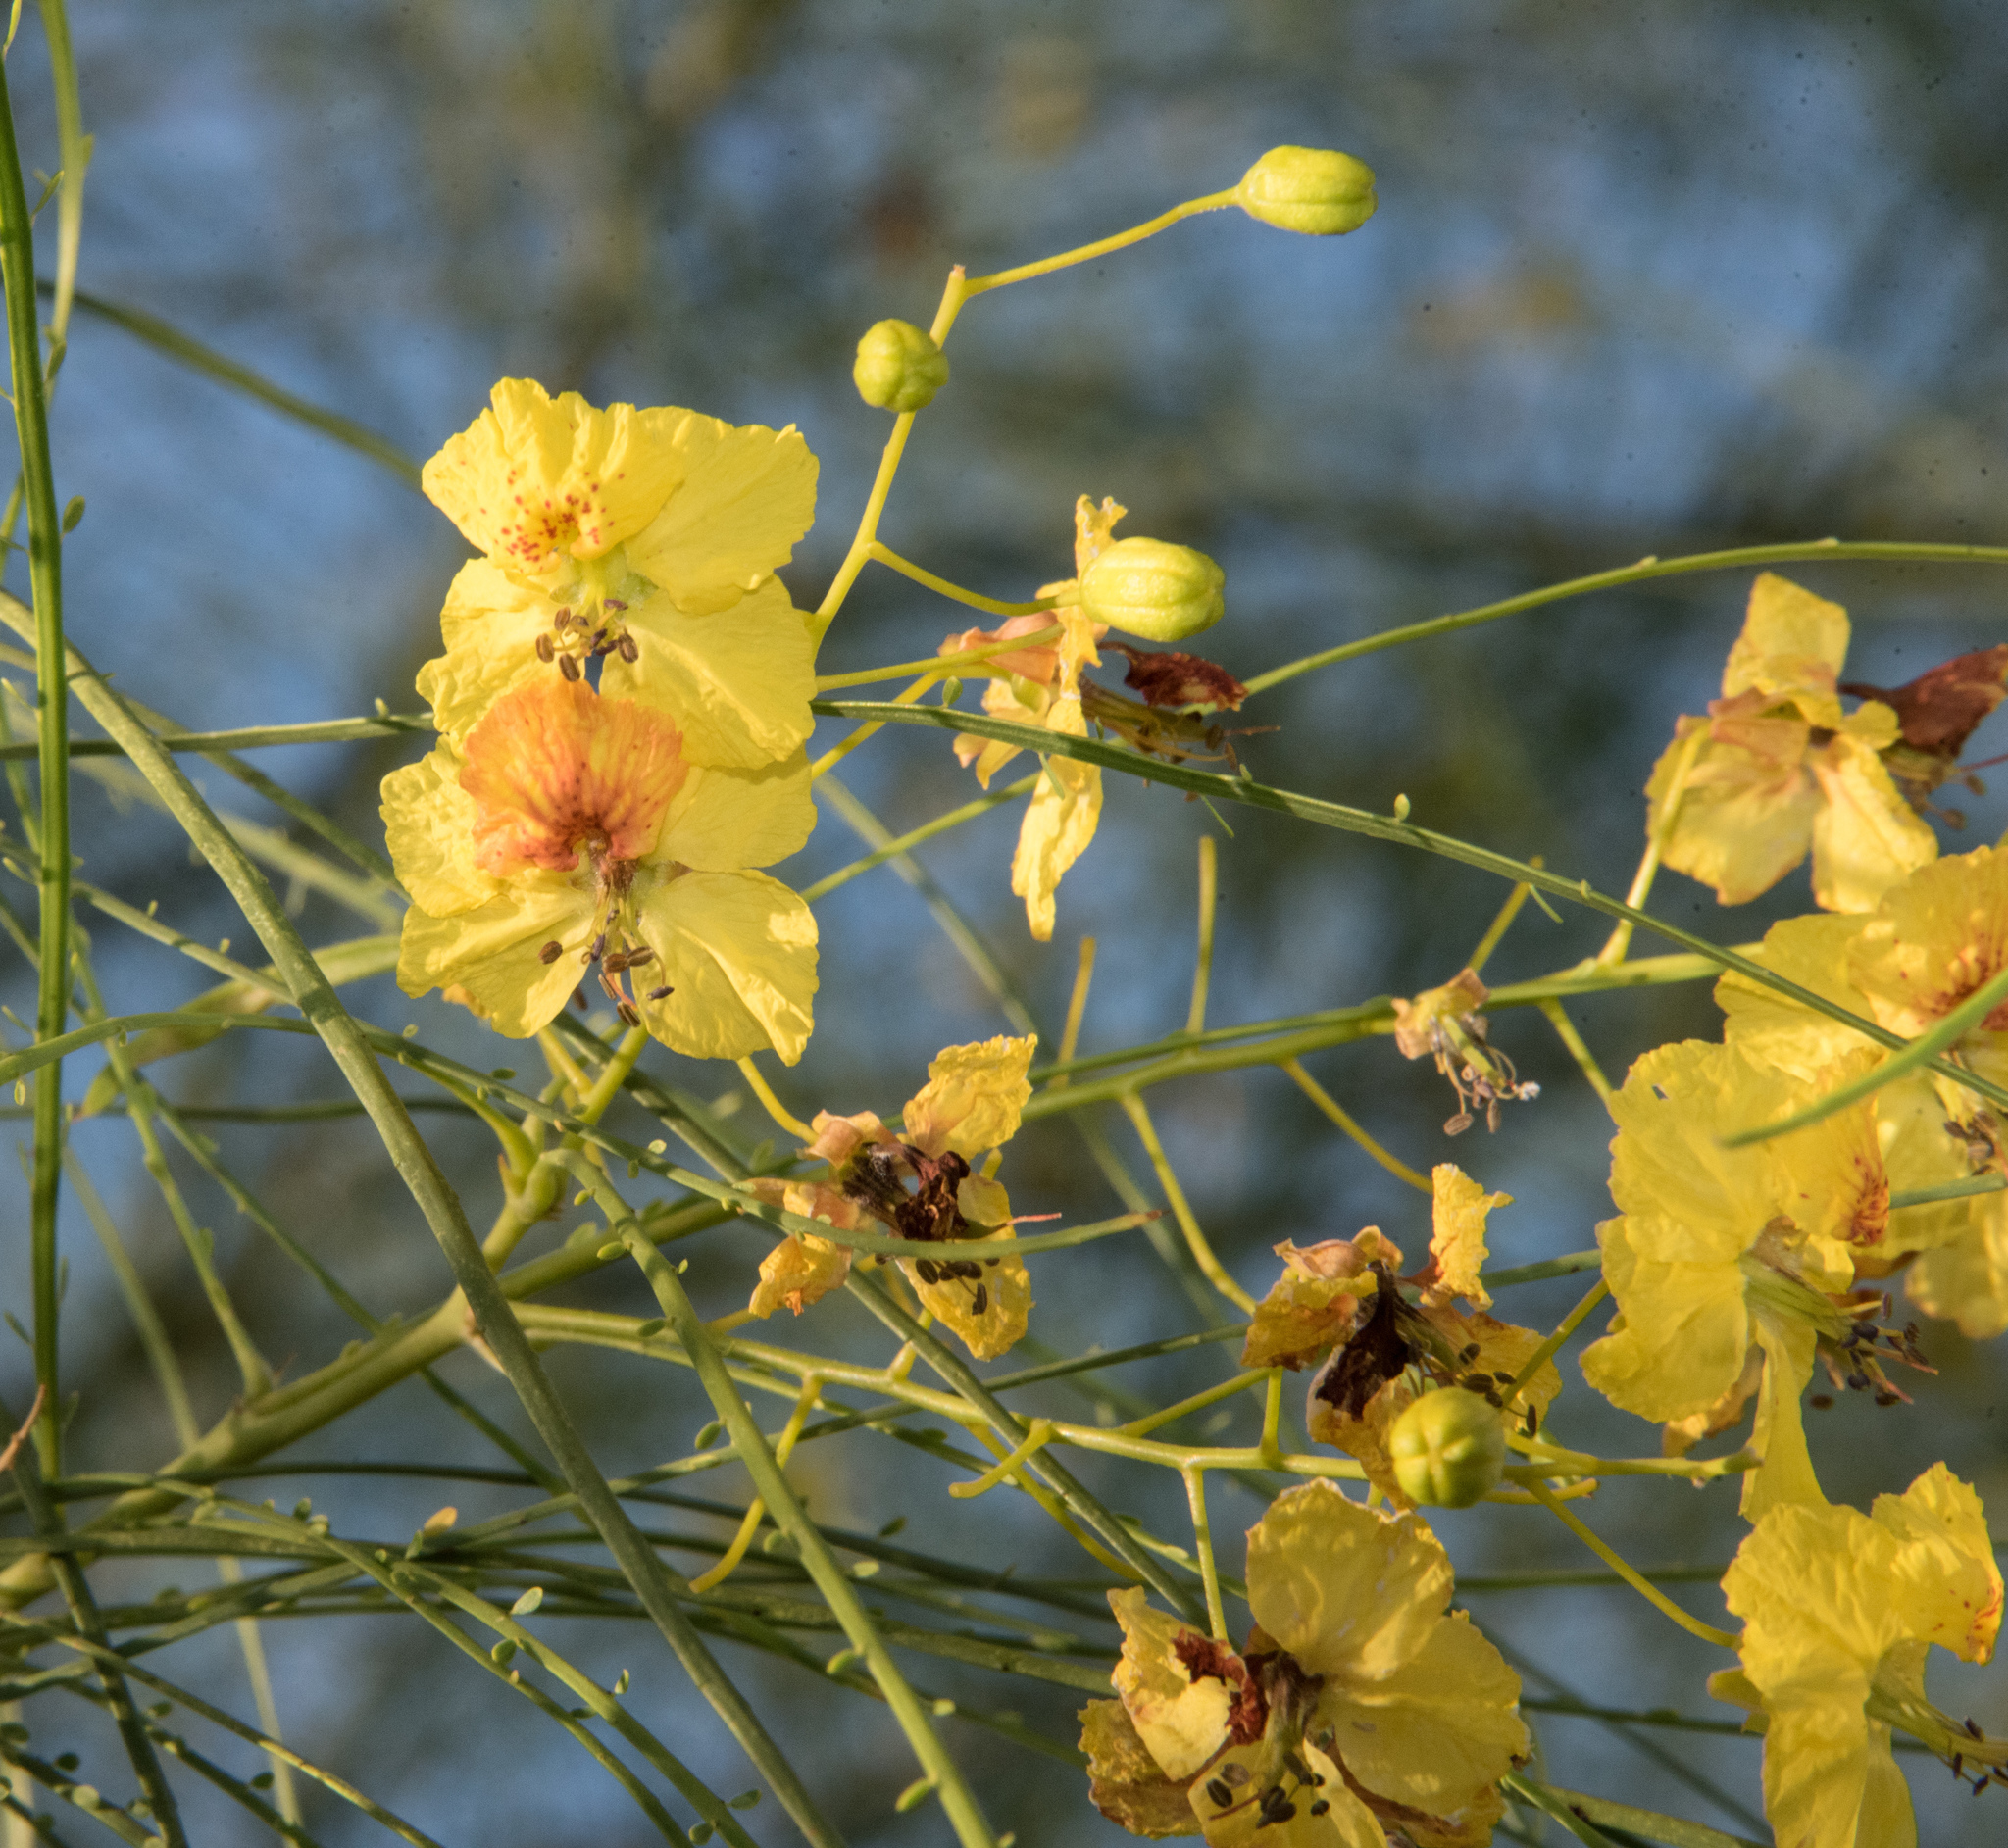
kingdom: Plantae
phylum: Tracheophyta
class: Magnoliopsida
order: Fabales
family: Fabaceae
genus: Parkinsonia
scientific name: Parkinsonia aculeata
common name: Jerusalem thorn
